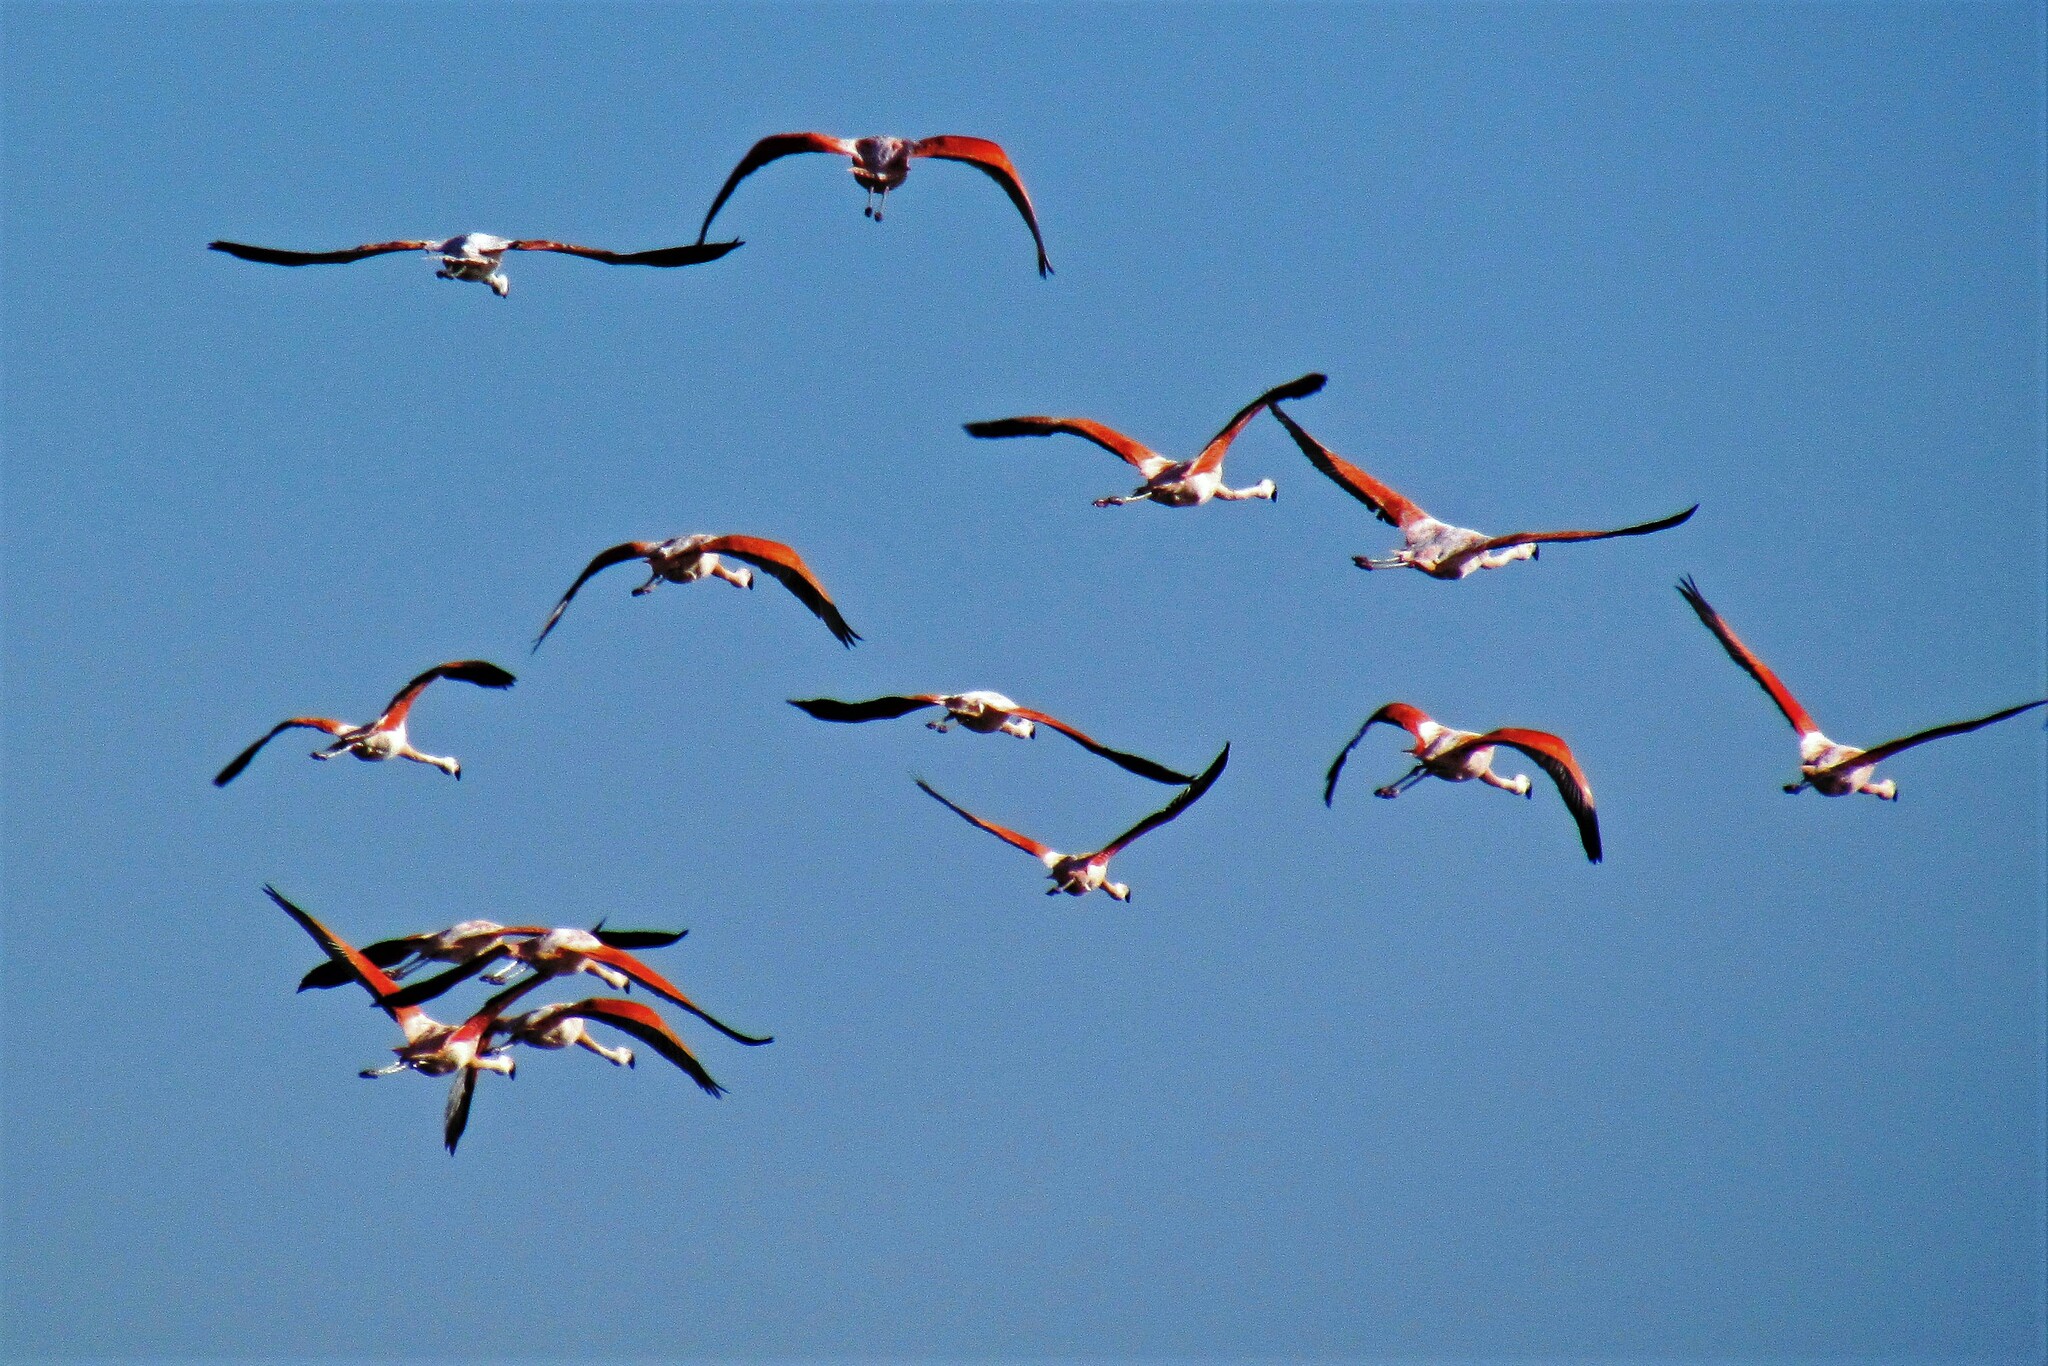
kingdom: Animalia
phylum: Chordata
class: Aves
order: Phoenicopteriformes
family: Phoenicopteridae
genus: Phoenicopterus
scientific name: Phoenicopterus chilensis
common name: Chilean flamingo
